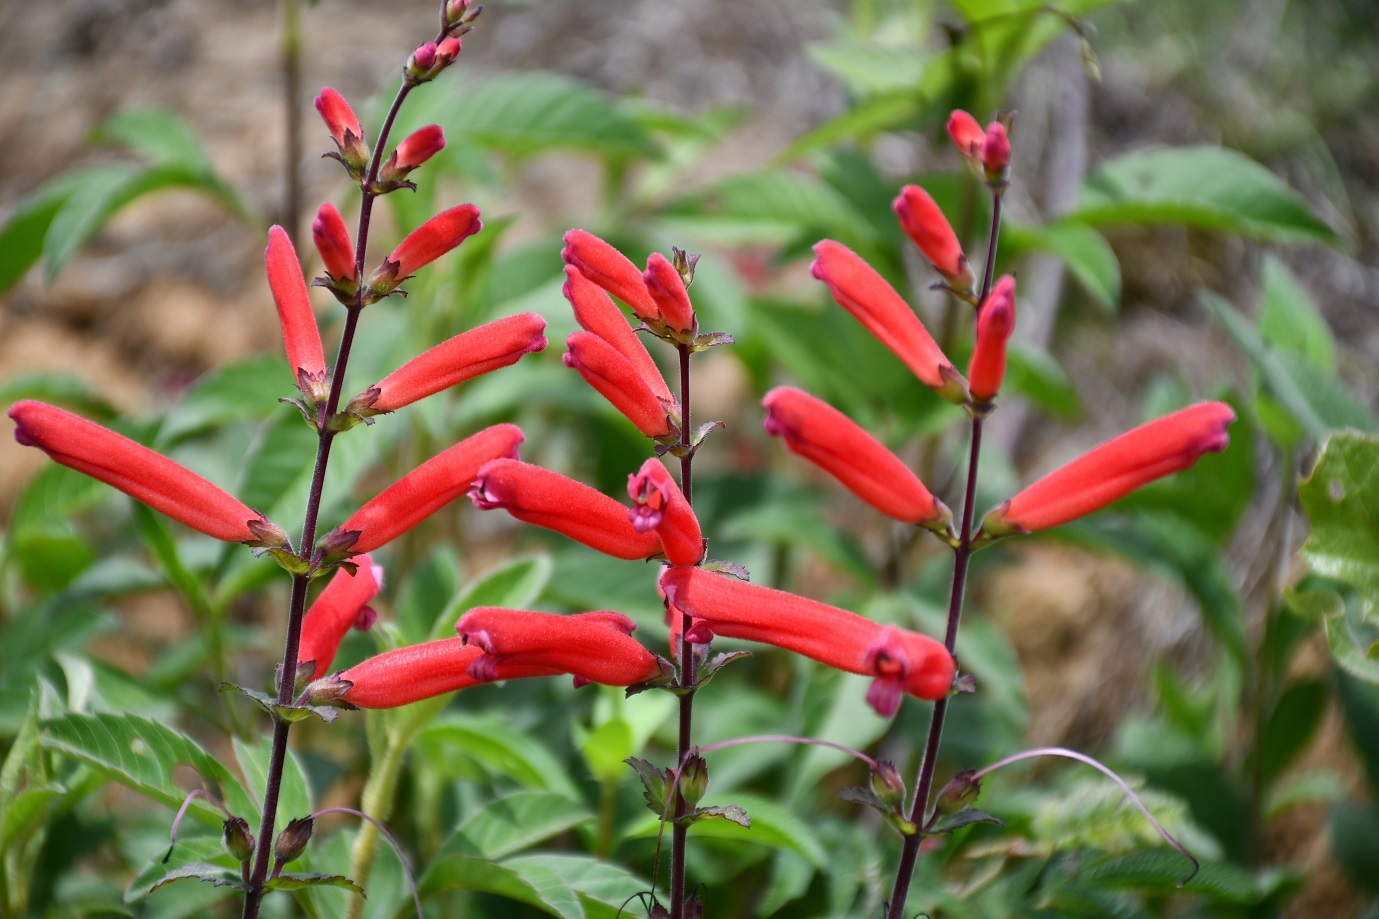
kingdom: Plantae
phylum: Tracheophyta
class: Magnoliopsida
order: Lamiales
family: Orobanchaceae
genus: Lamourouxia
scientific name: Lamourouxia rhinanthifolia
